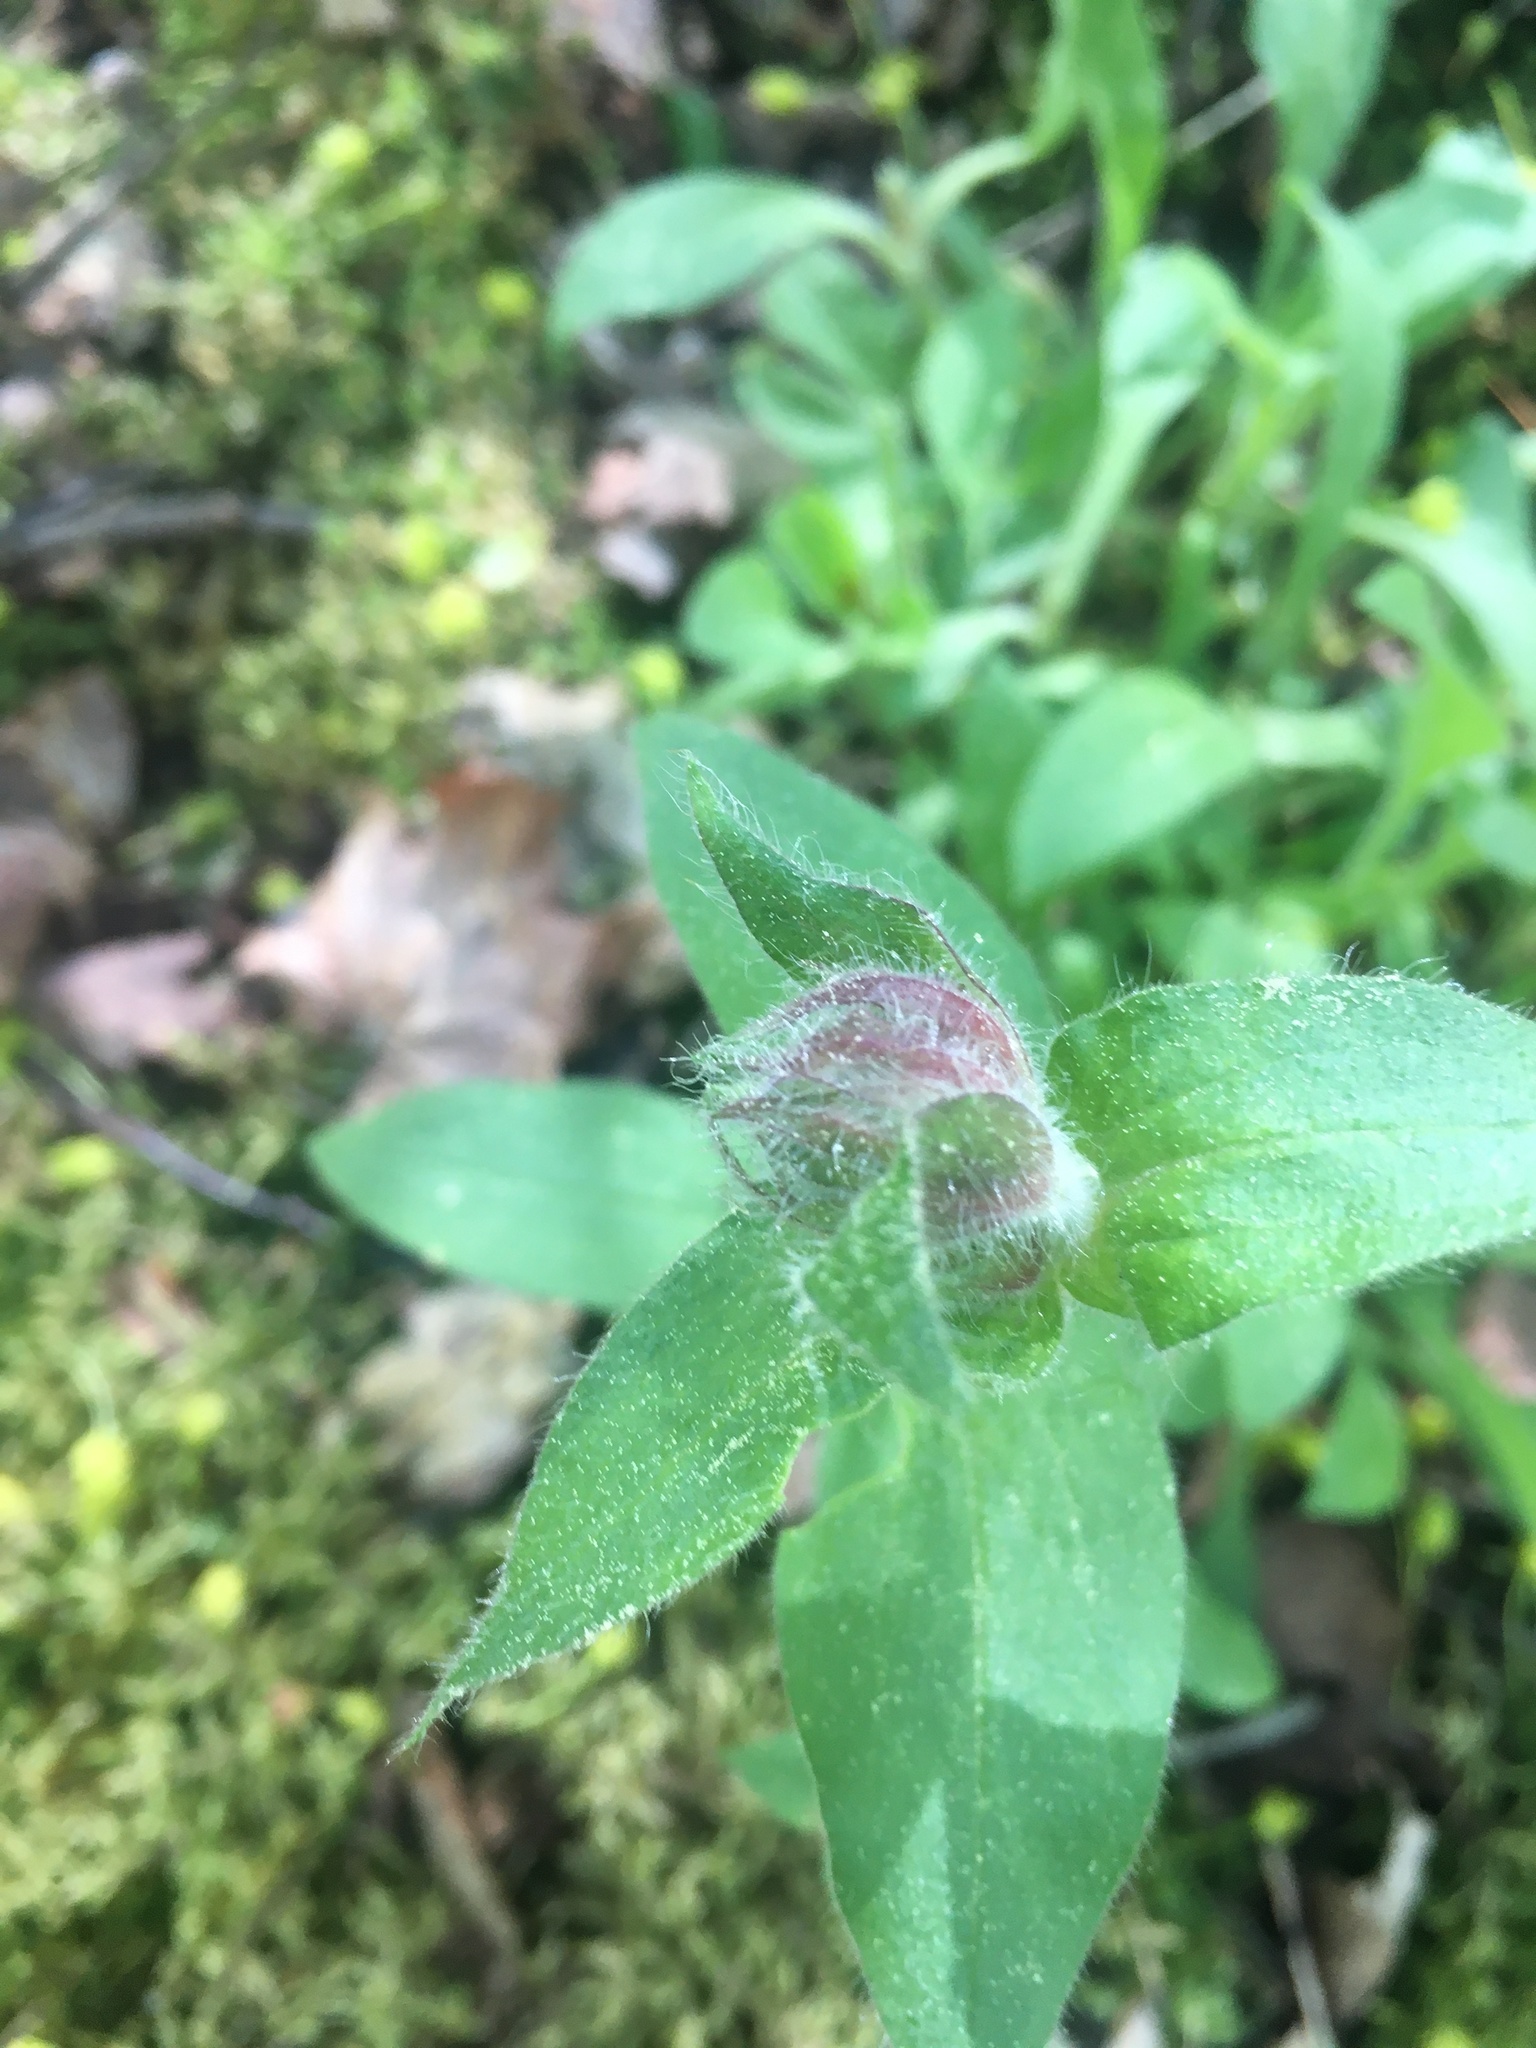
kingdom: Plantae
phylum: Tracheophyta
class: Magnoliopsida
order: Caryophyllales
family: Caryophyllaceae
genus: Silene
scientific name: Silene dioica
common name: Red campion
